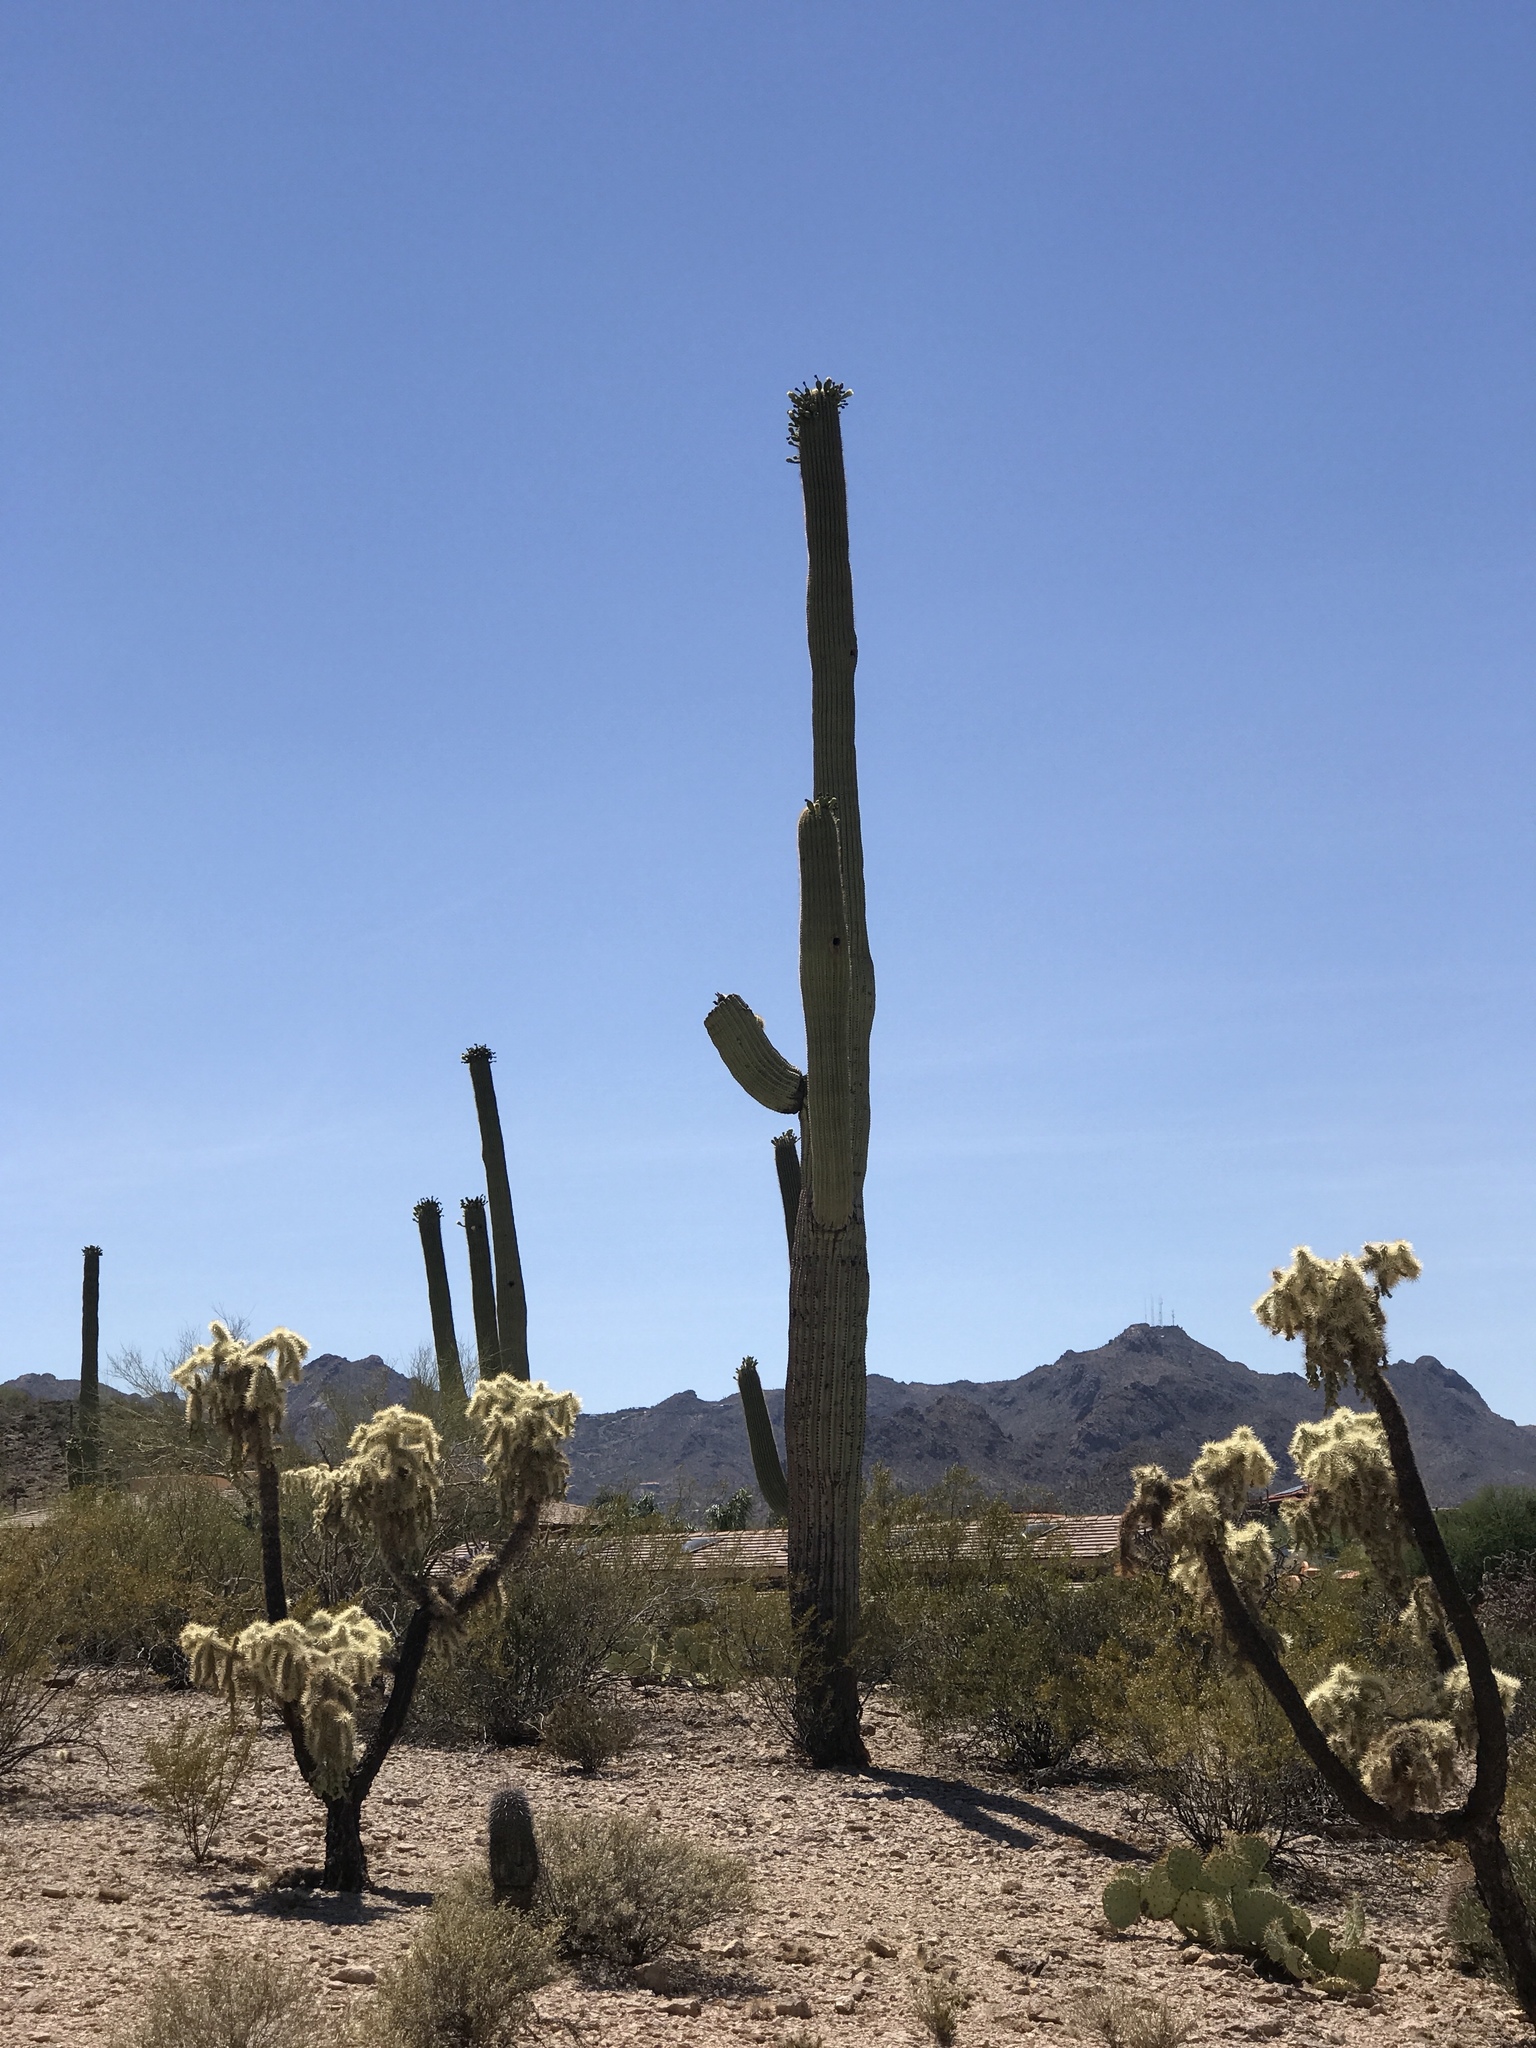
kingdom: Plantae
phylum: Tracheophyta
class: Magnoliopsida
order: Caryophyllales
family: Cactaceae
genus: Carnegiea
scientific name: Carnegiea gigantea
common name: Saguaro
